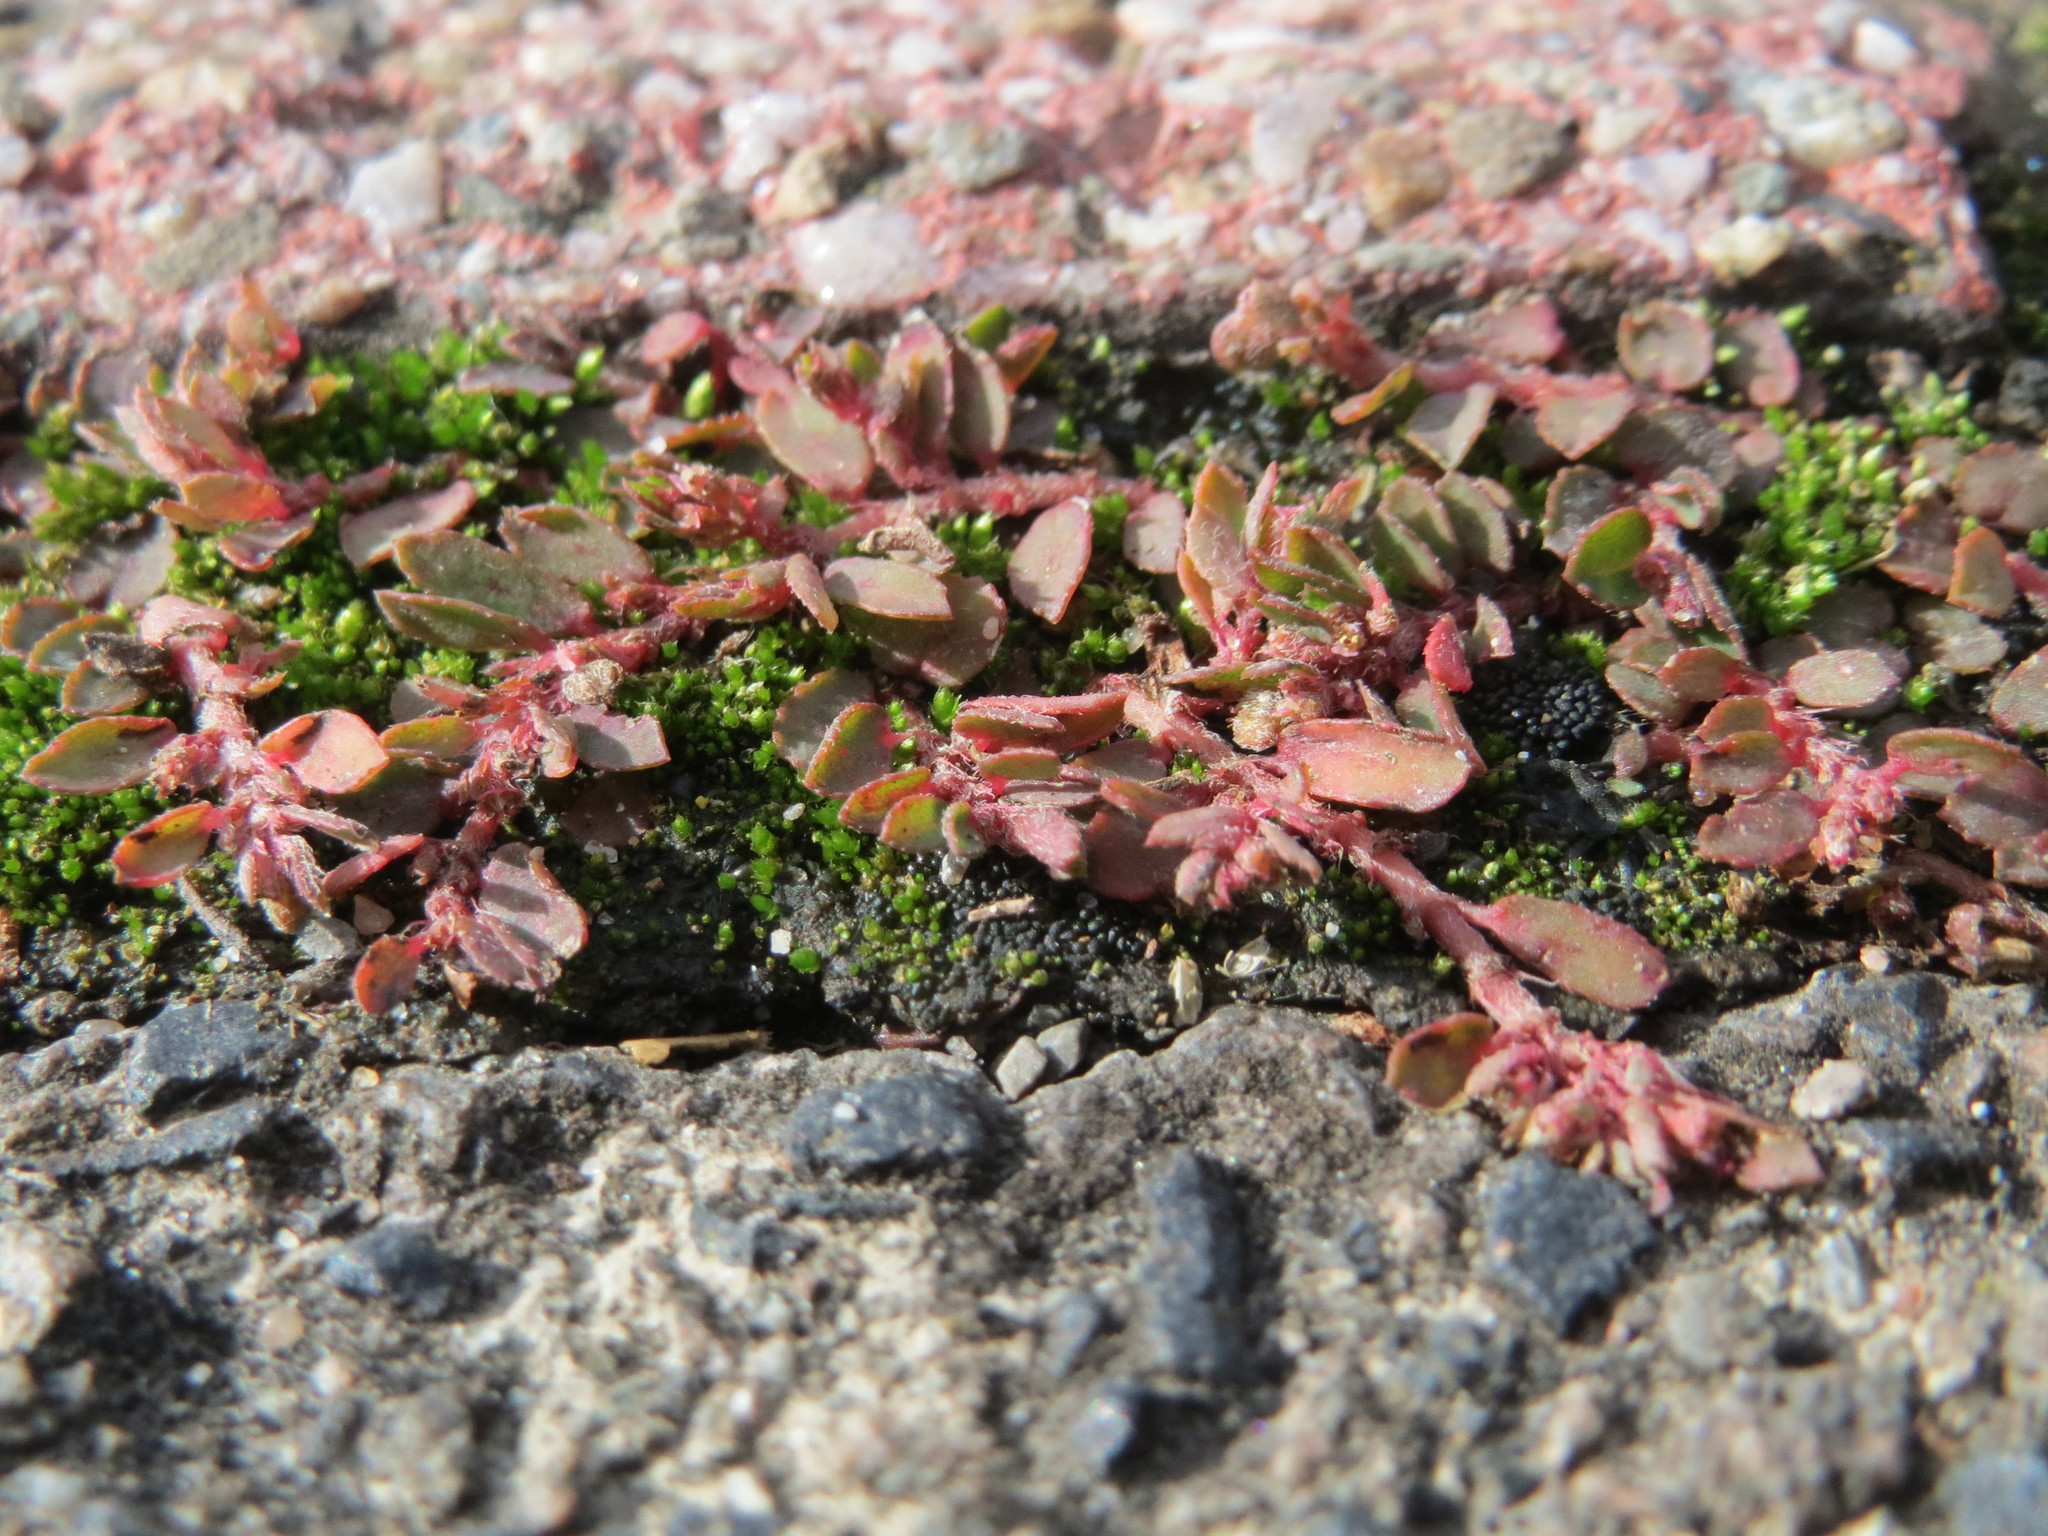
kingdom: Plantae
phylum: Tracheophyta
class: Magnoliopsida
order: Malpighiales
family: Euphorbiaceae
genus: Euphorbia
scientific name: Euphorbia maculata
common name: Spotted spurge
